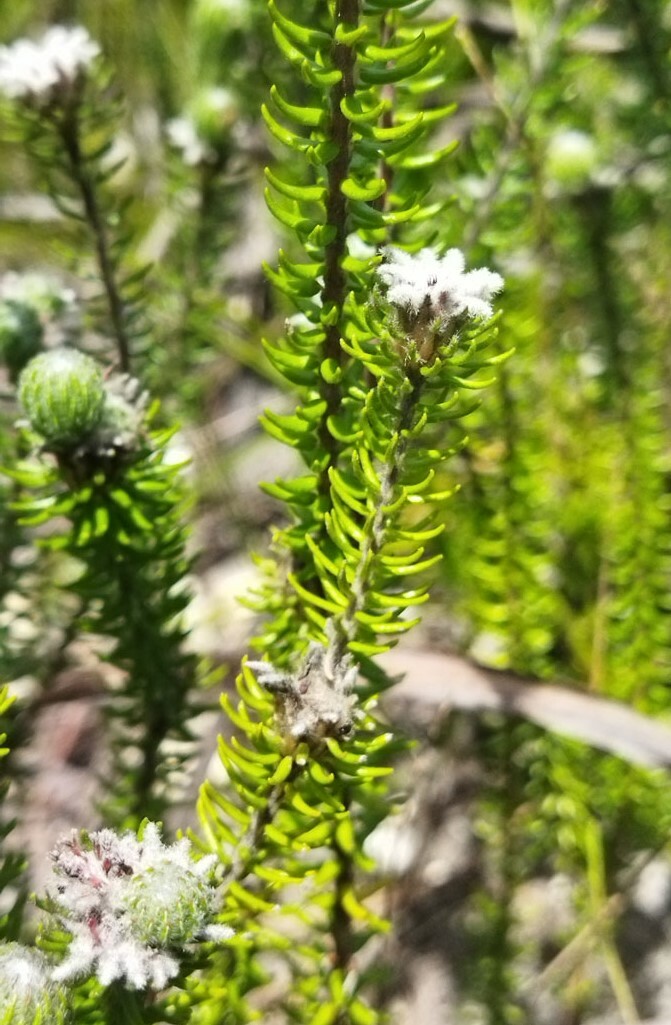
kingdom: Plantae
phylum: Tracheophyta
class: Magnoliopsida
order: Rosales
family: Rhamnaceae
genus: Phylica
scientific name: Phylica curvifolia
